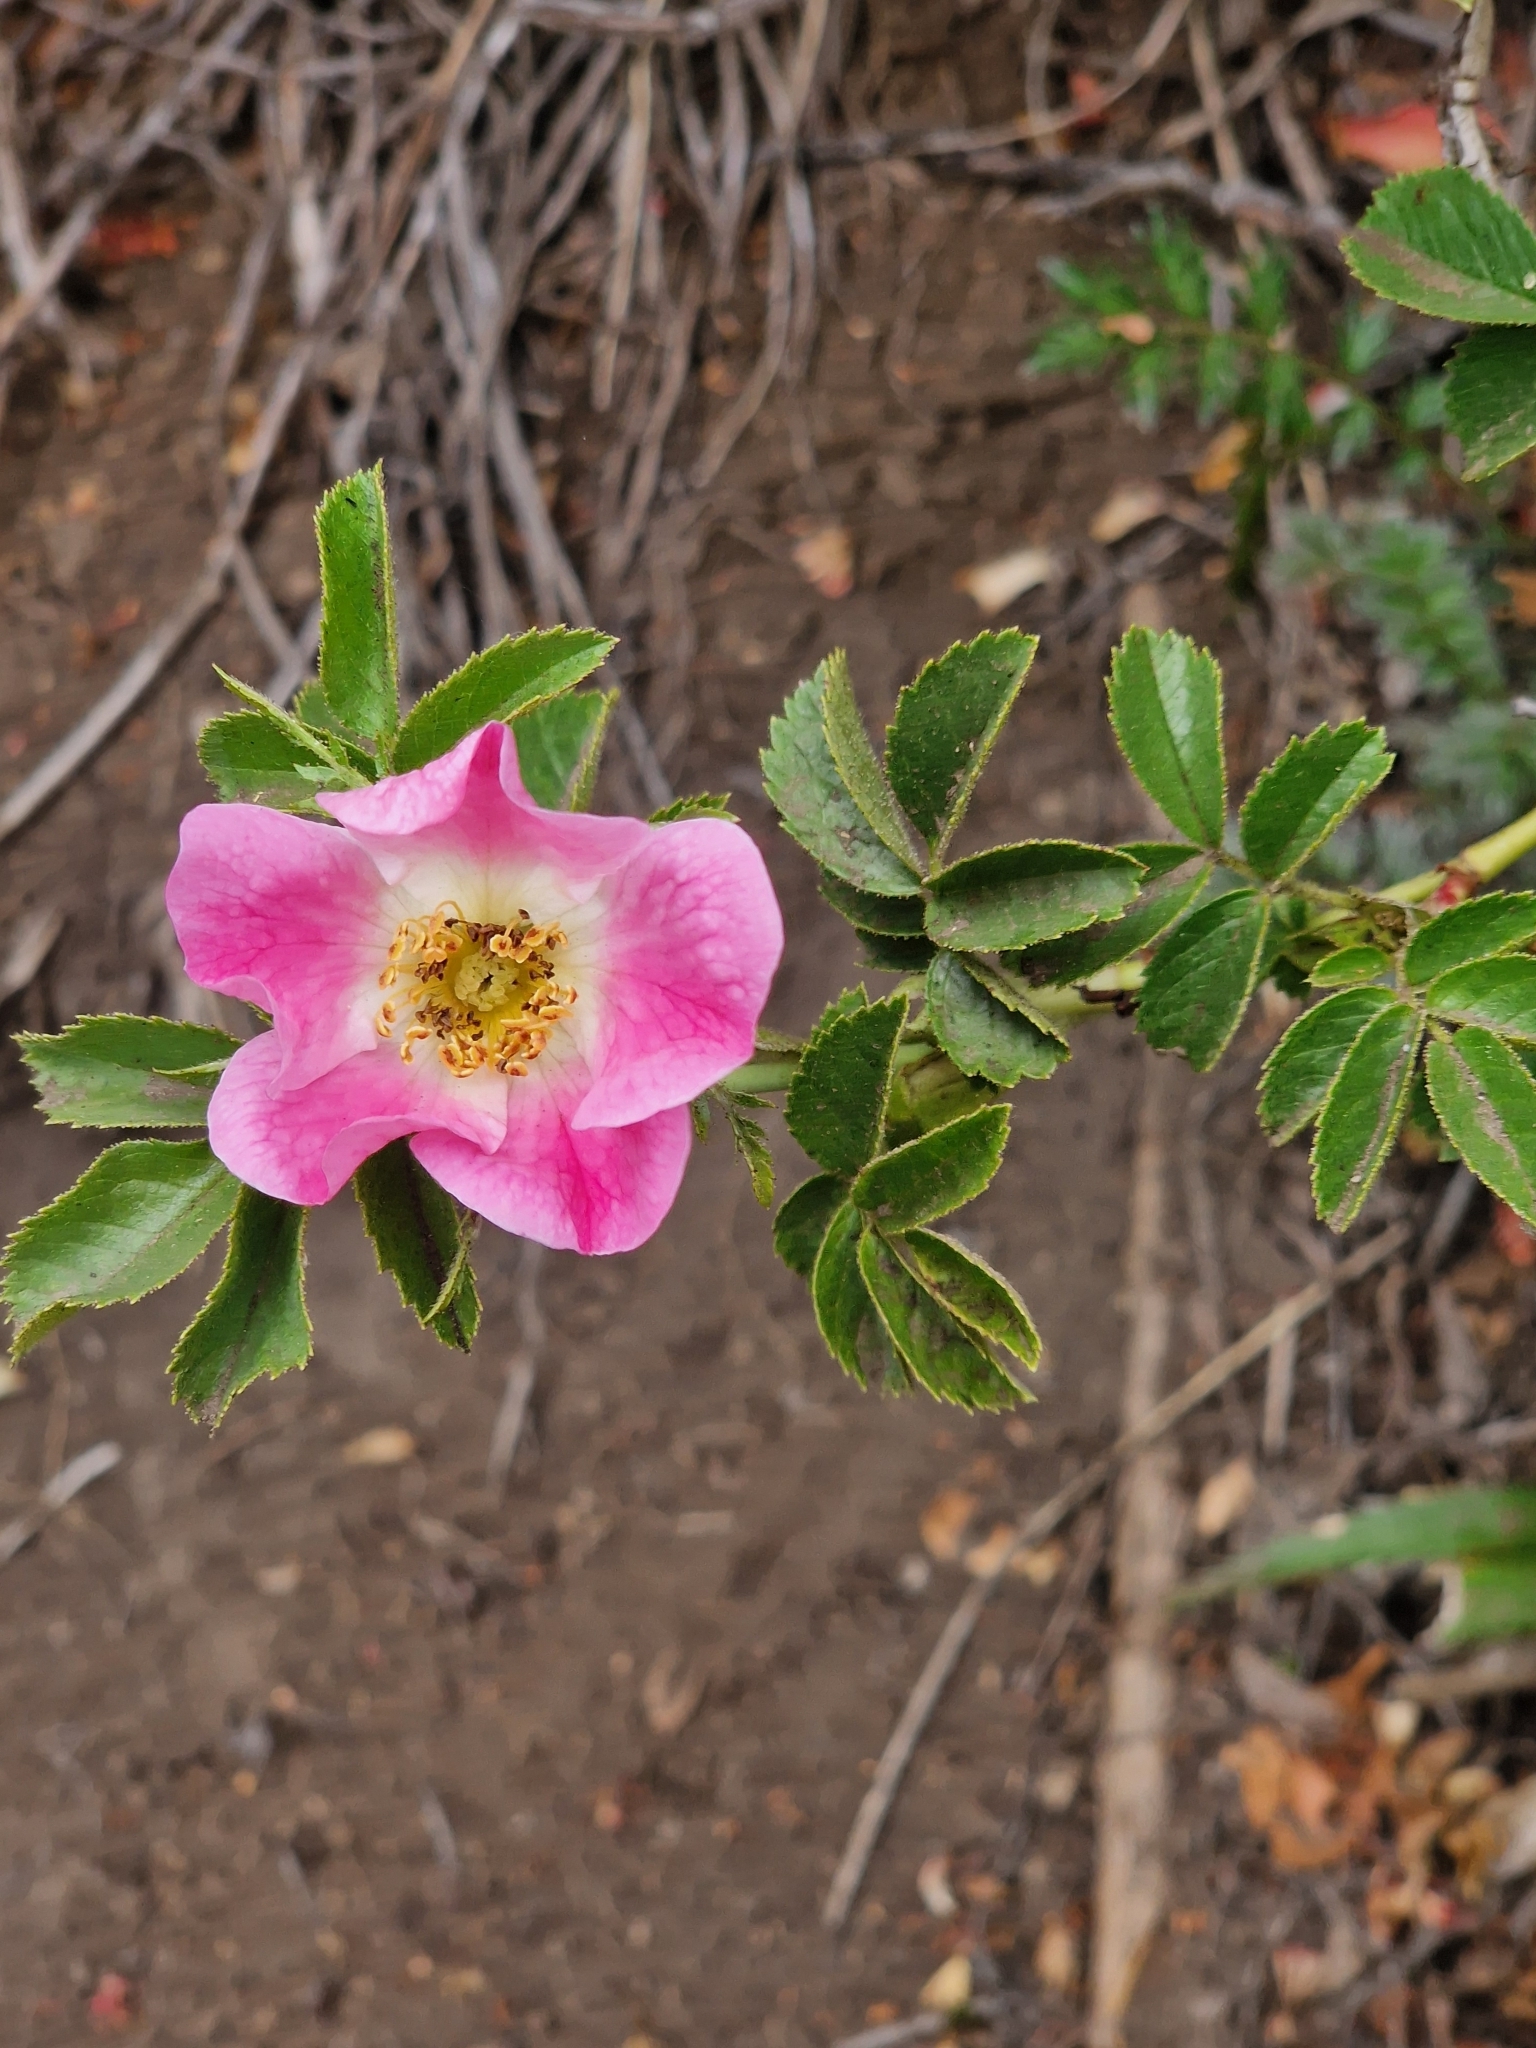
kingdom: Plantae
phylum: Tracheophyta
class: Magnoliopsida
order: Rosales
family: Rosaceae
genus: Rosa
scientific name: Rosa rubiginosa
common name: Sweet-briar
